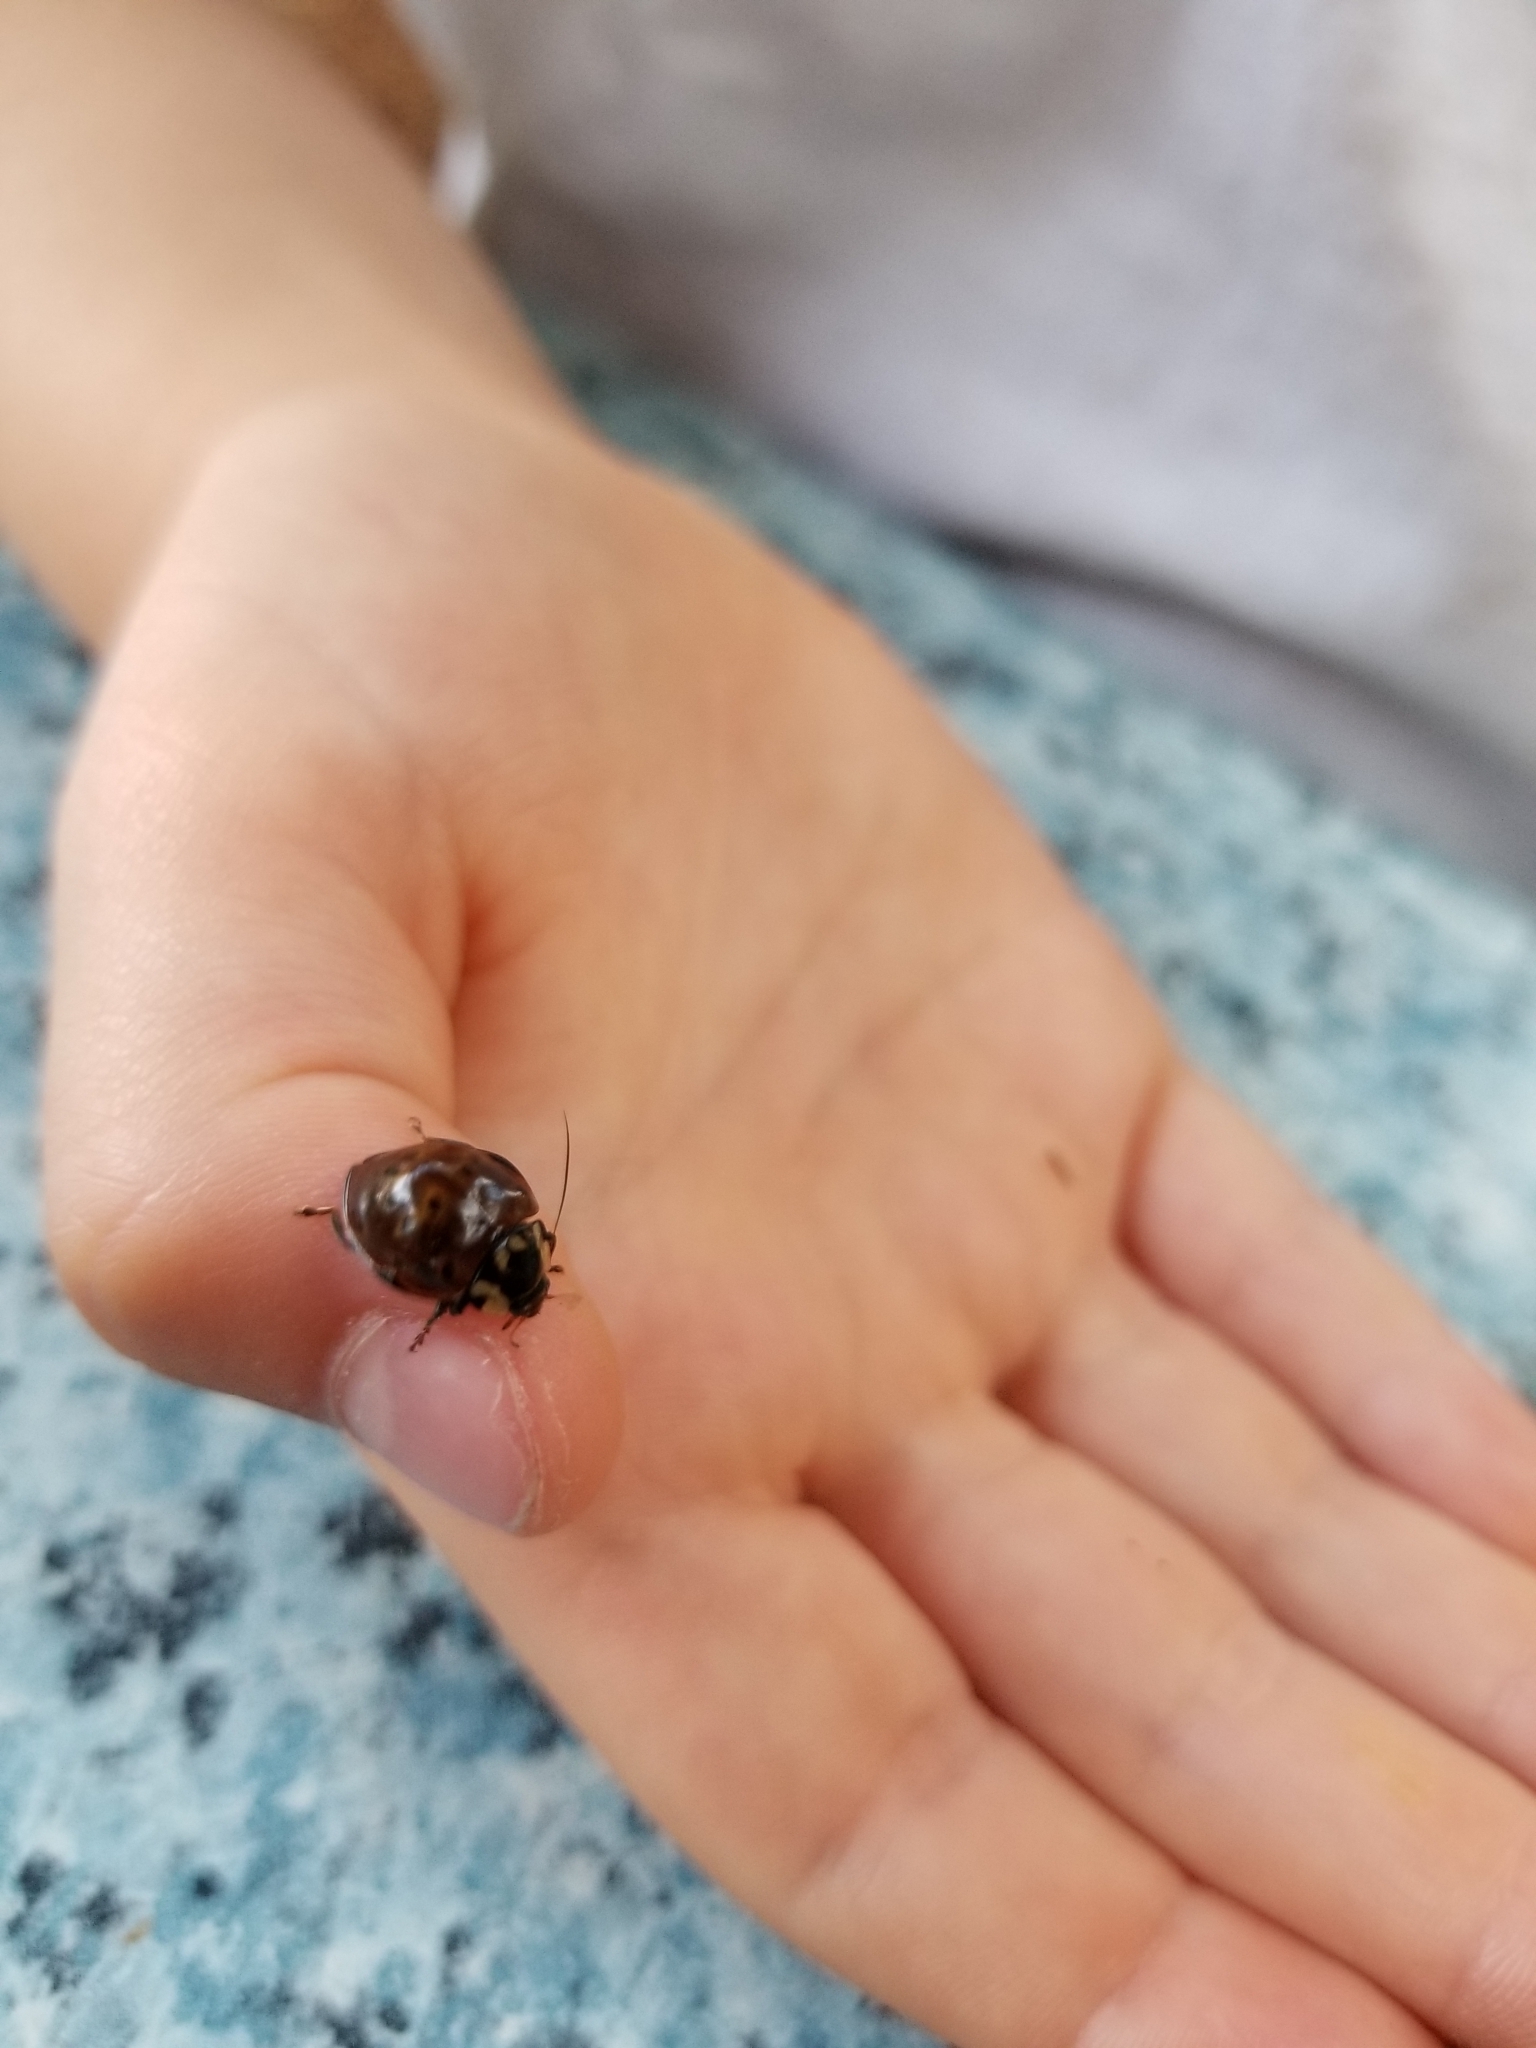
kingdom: Animalia
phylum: Arthropoda
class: Insecta
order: Coleoptera
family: Coccinellidae
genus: Anatis
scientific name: Anatis rathvoni
